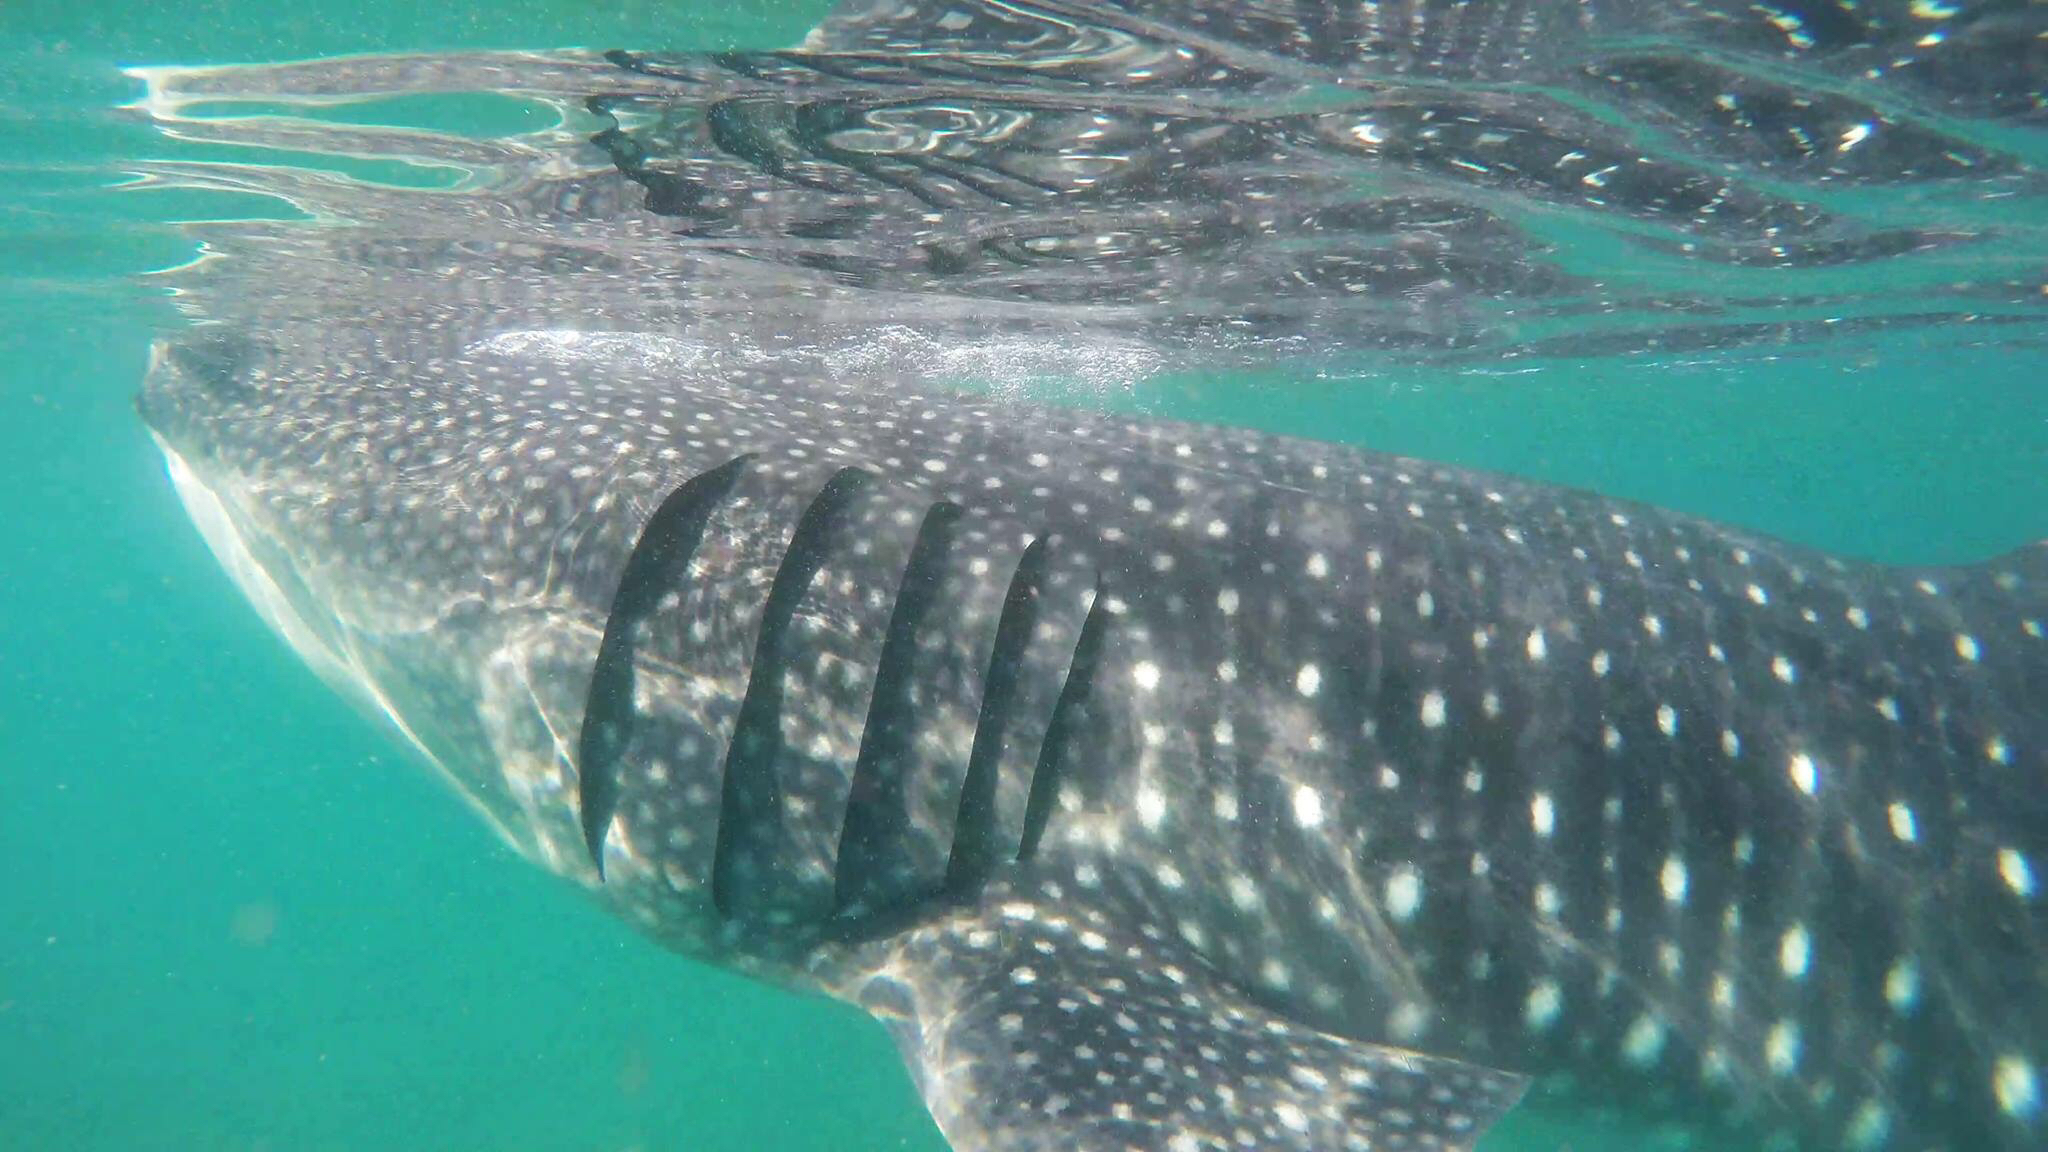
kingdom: Animalia
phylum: Chordata
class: Elasmobranchii
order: Orectolobiformes
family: Rhincodontidae
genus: Rhincodon
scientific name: Rhincodon typus
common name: Whale shark
